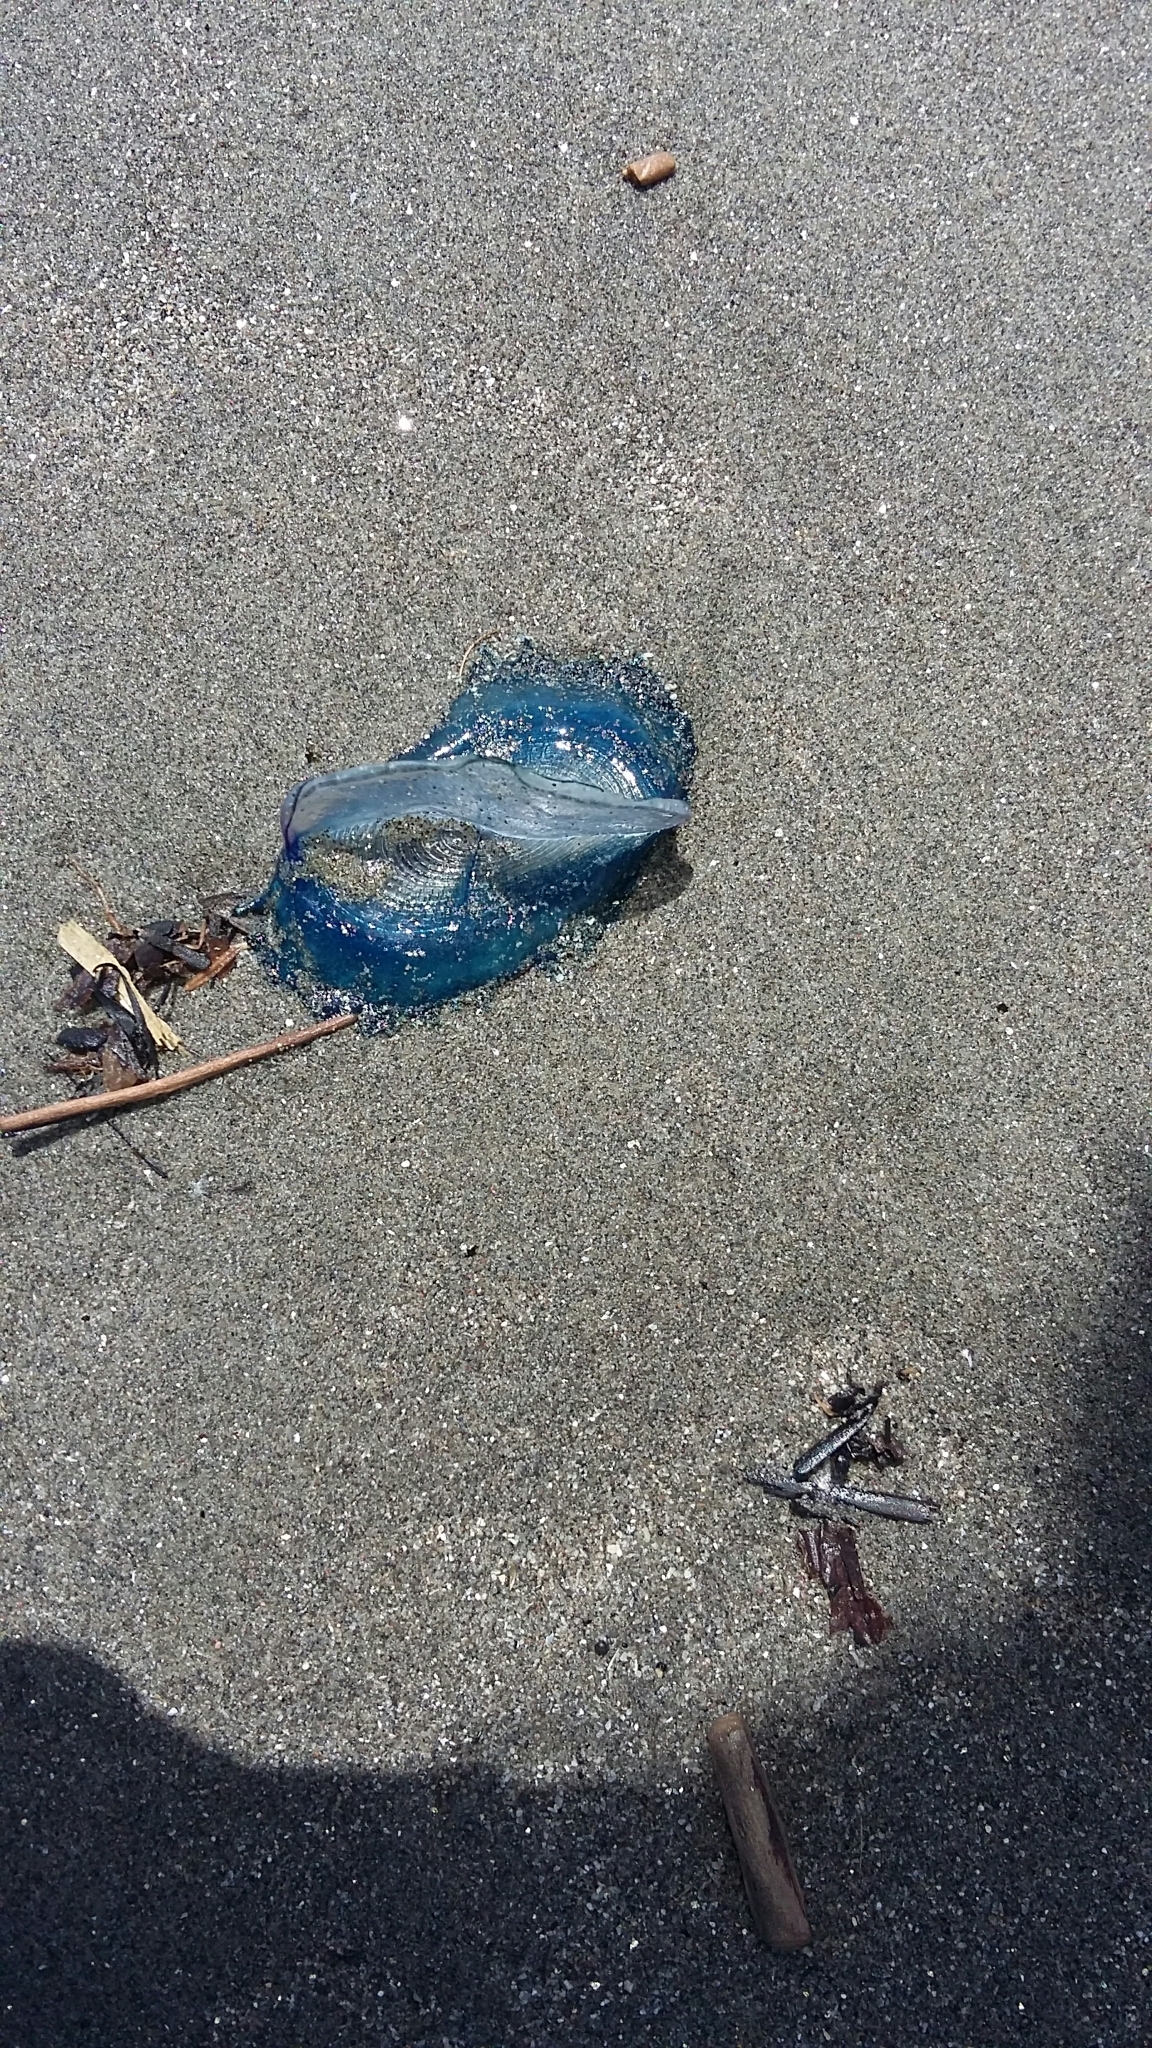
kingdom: Animalia
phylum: Cnidaria
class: Hydrozoa
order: Anthoathecata
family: Porpitidae
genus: Velella
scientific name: Velella velella
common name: By-the-wind-sailor
